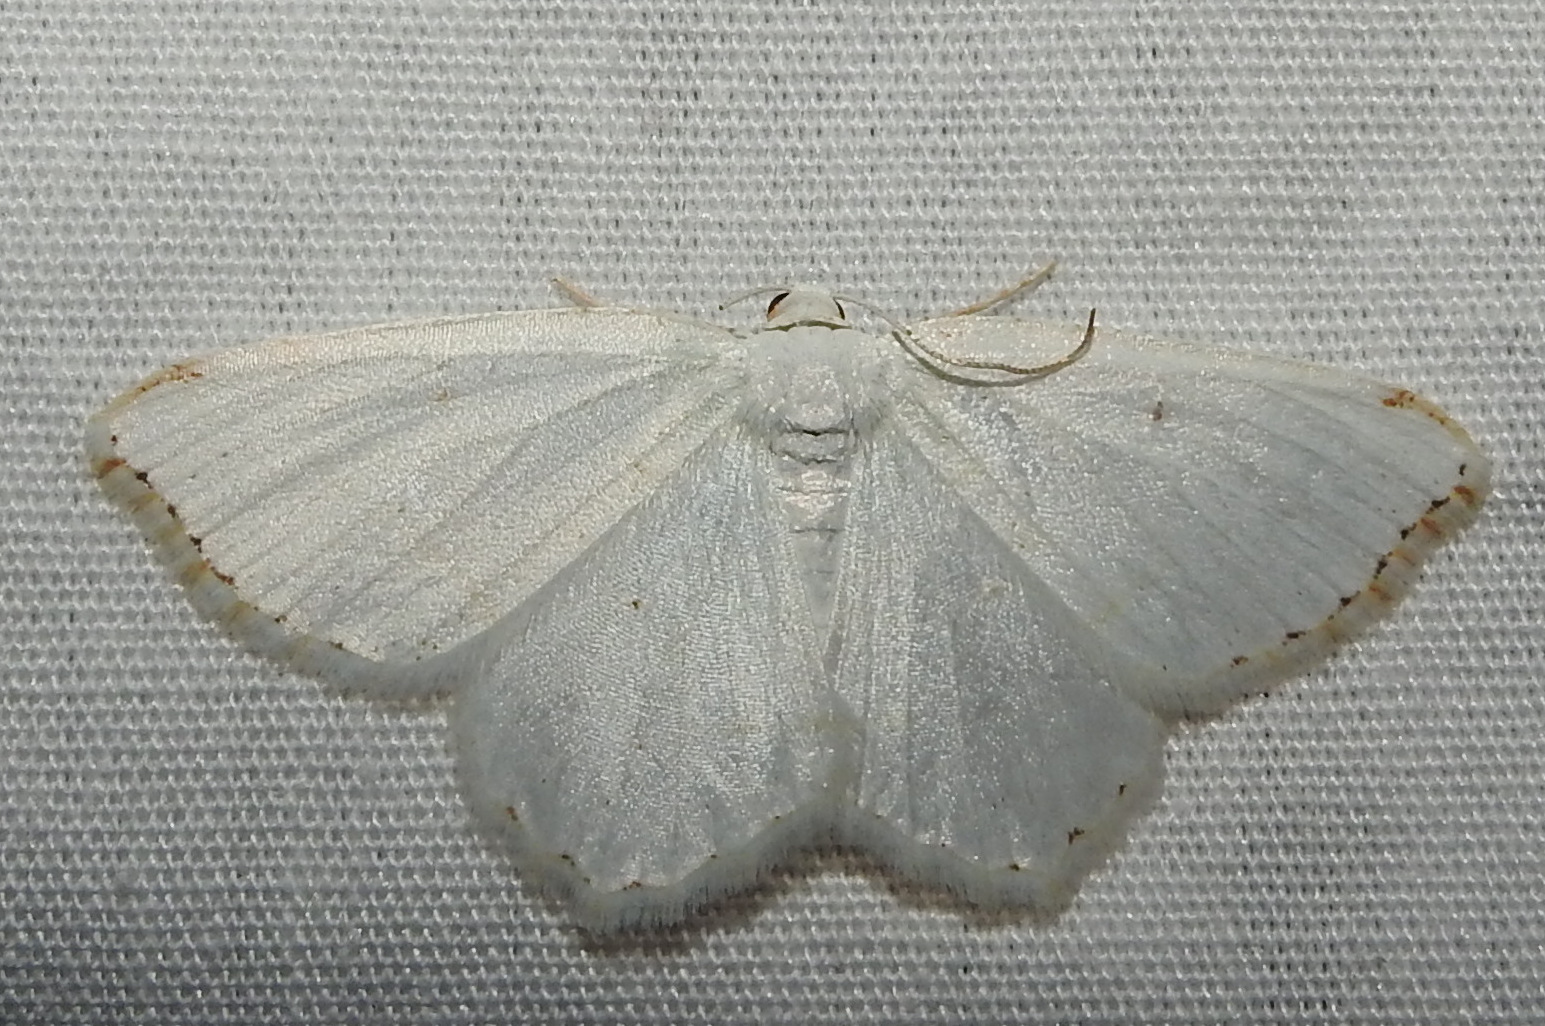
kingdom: Animalia
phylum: Arthropoda
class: Insecta
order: Lepidoptera
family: Geometridae
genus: Macaria
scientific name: Macaria pustularia
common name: Lesser maple spanworm moth
